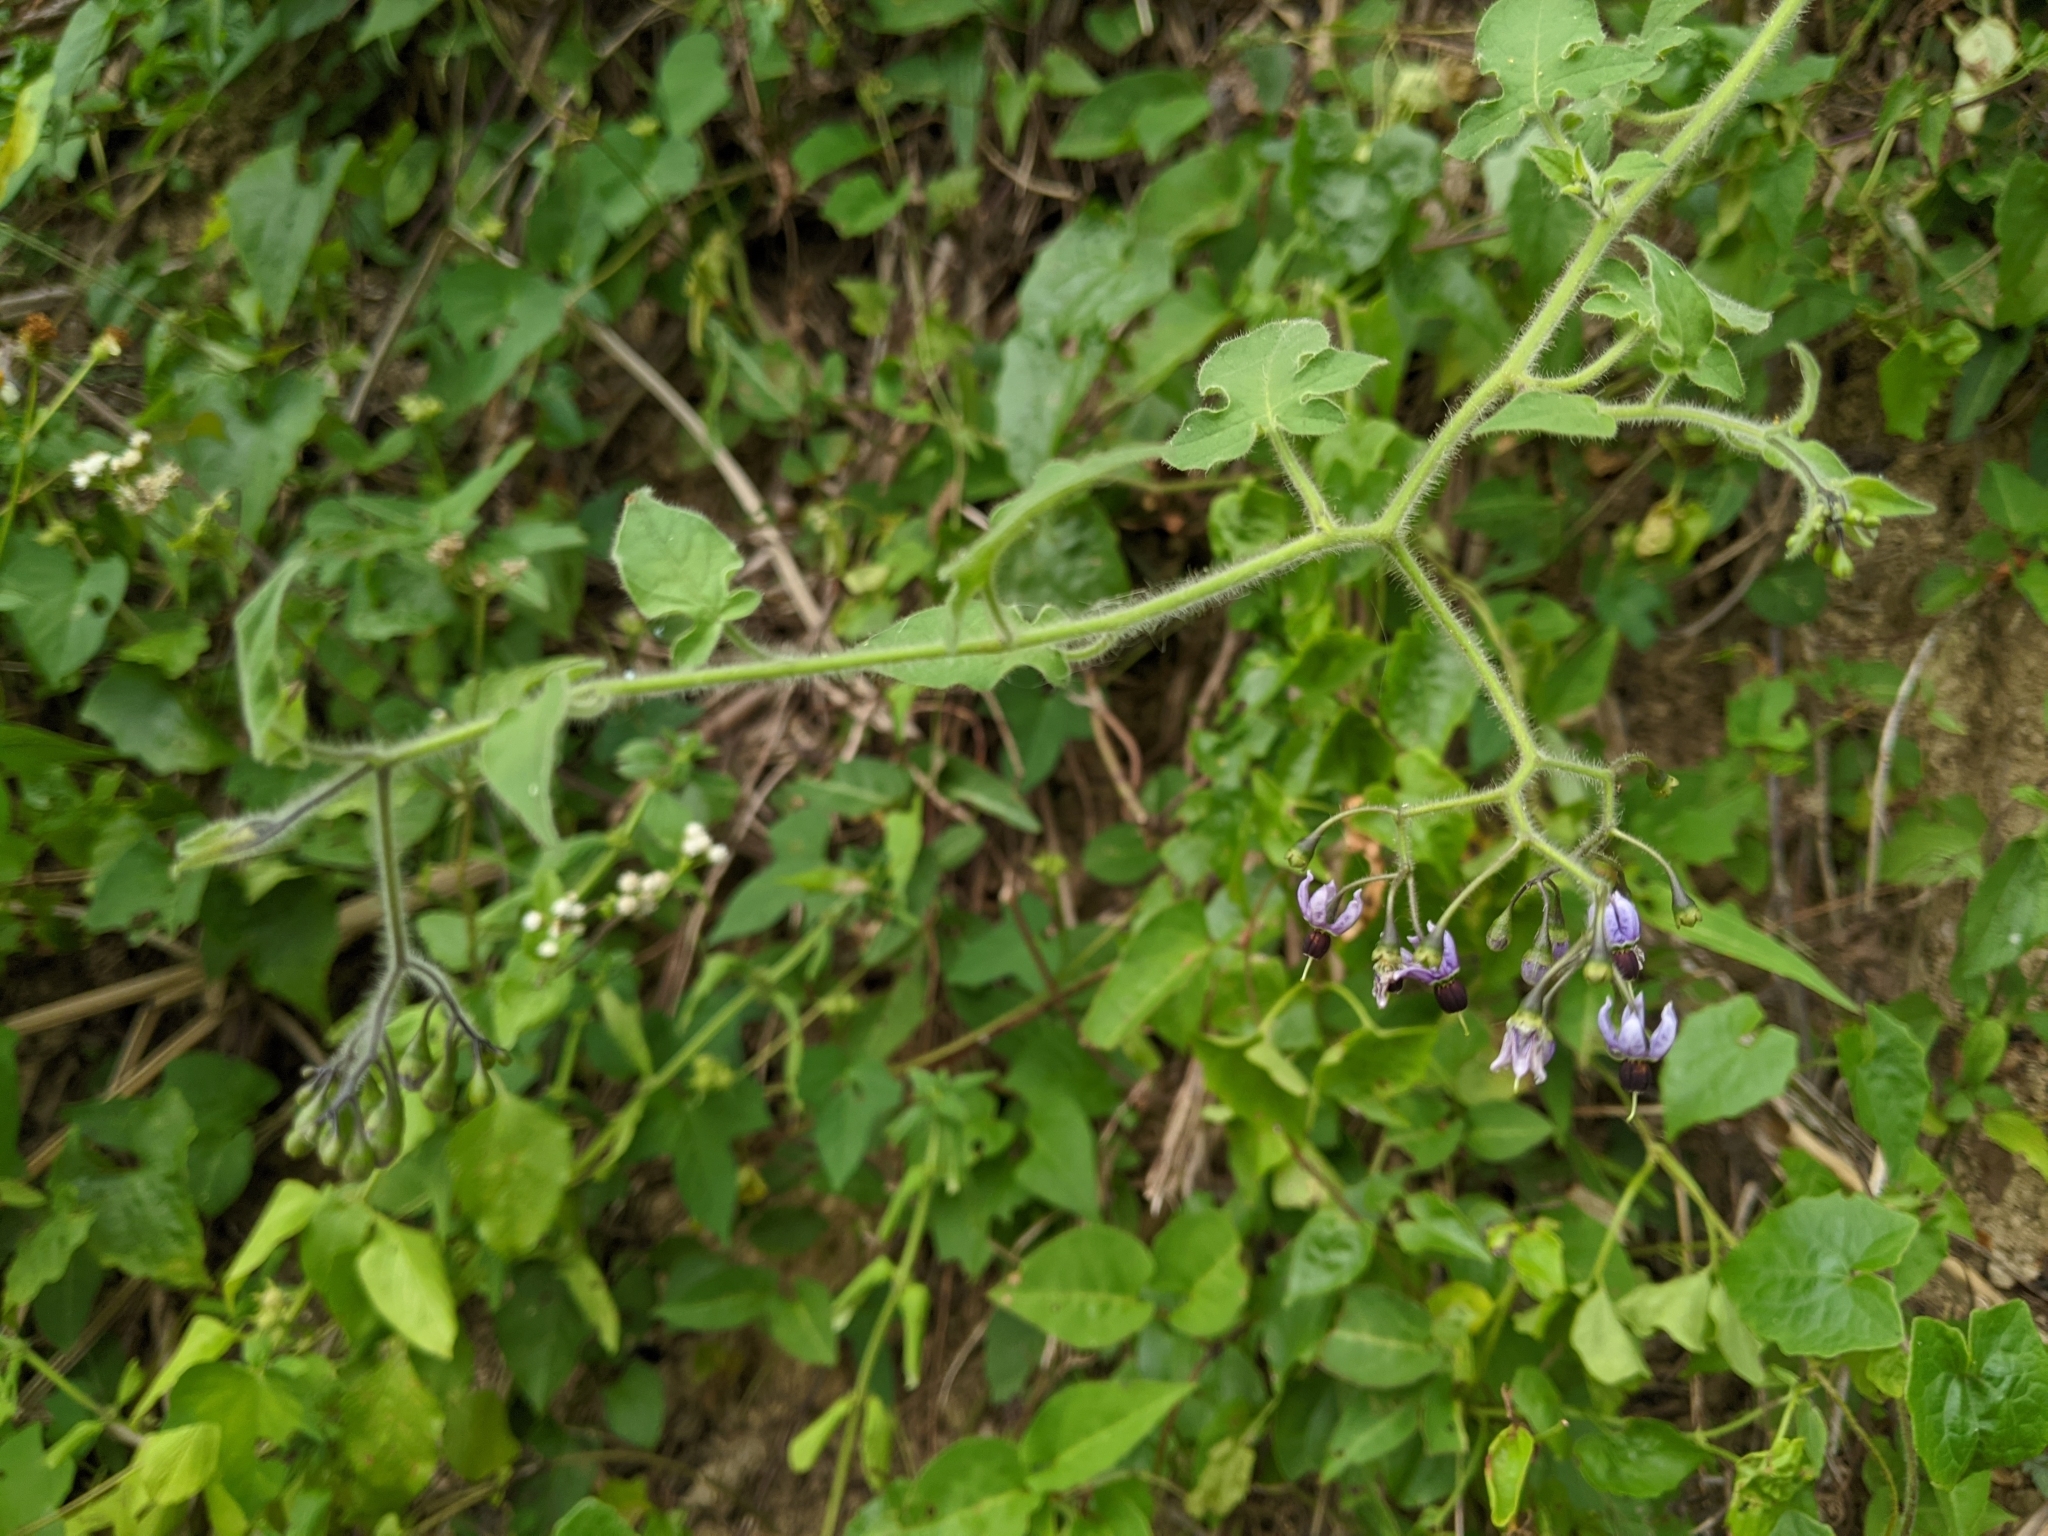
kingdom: Plantae
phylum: Tracheophyta
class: Magnoliopsida
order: Solanales
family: Solanaceae
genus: Solanum
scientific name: Solanum lyratum
